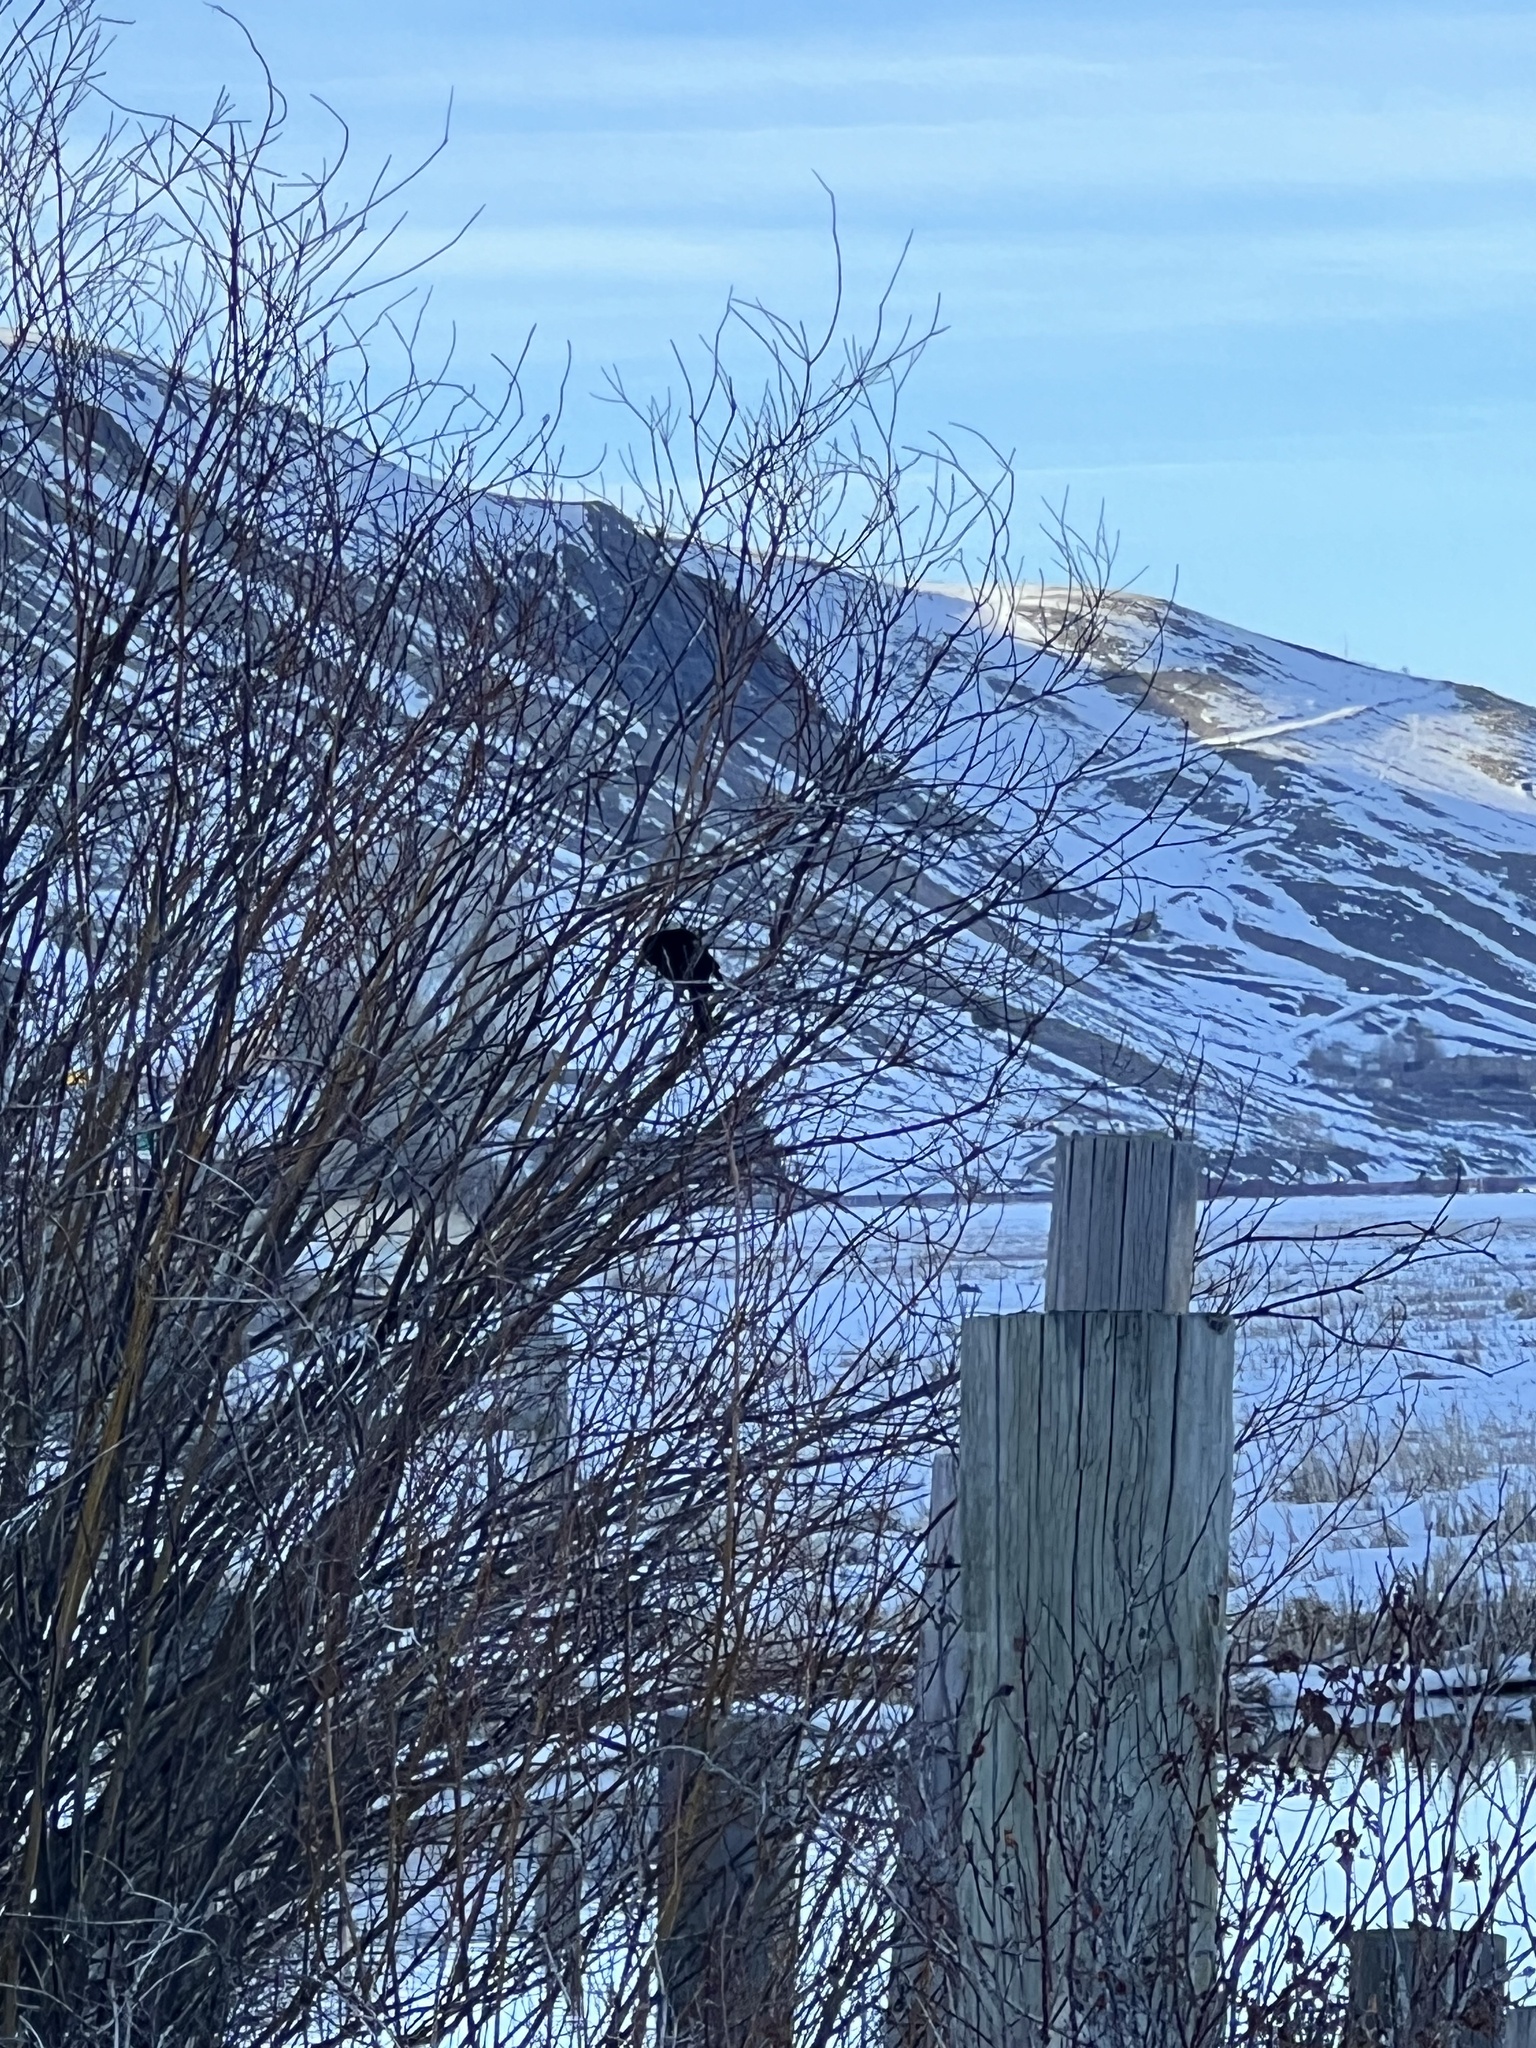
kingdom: Animalia
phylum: Chordata
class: Aves
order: Passeriformes
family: Icteridae
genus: Agelaius
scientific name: Agelaius phoeniceus
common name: Red-winged blackbird
